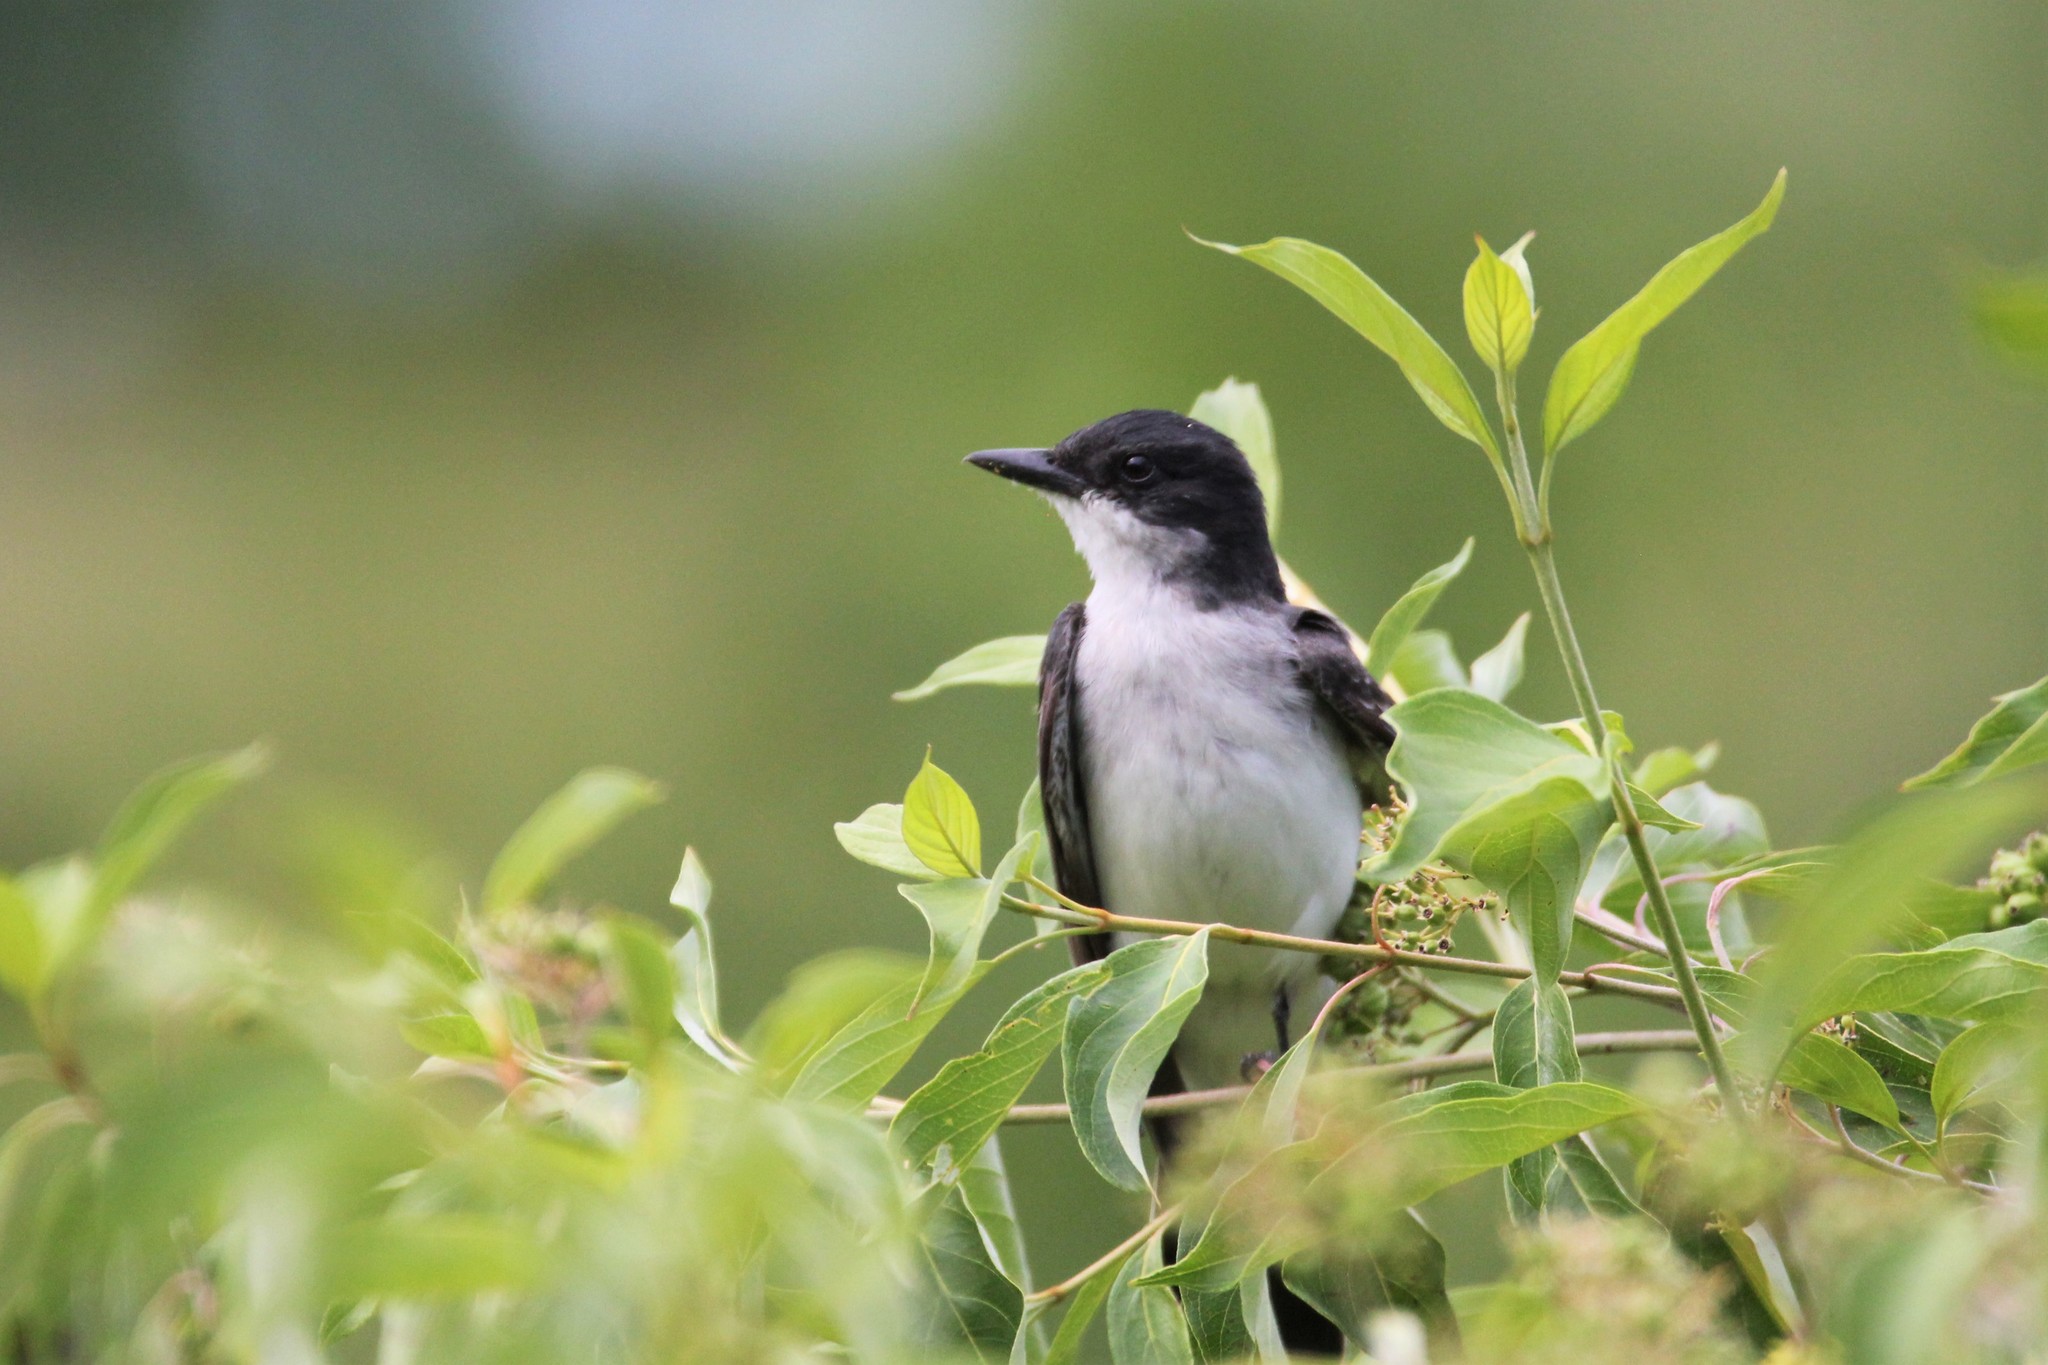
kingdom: Animalia
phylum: Chordata
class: Aves
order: Passeriformes
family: Tyrannidae
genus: Tyrannus
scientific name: Tyrannus tyrannus
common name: Eastern kingbird
